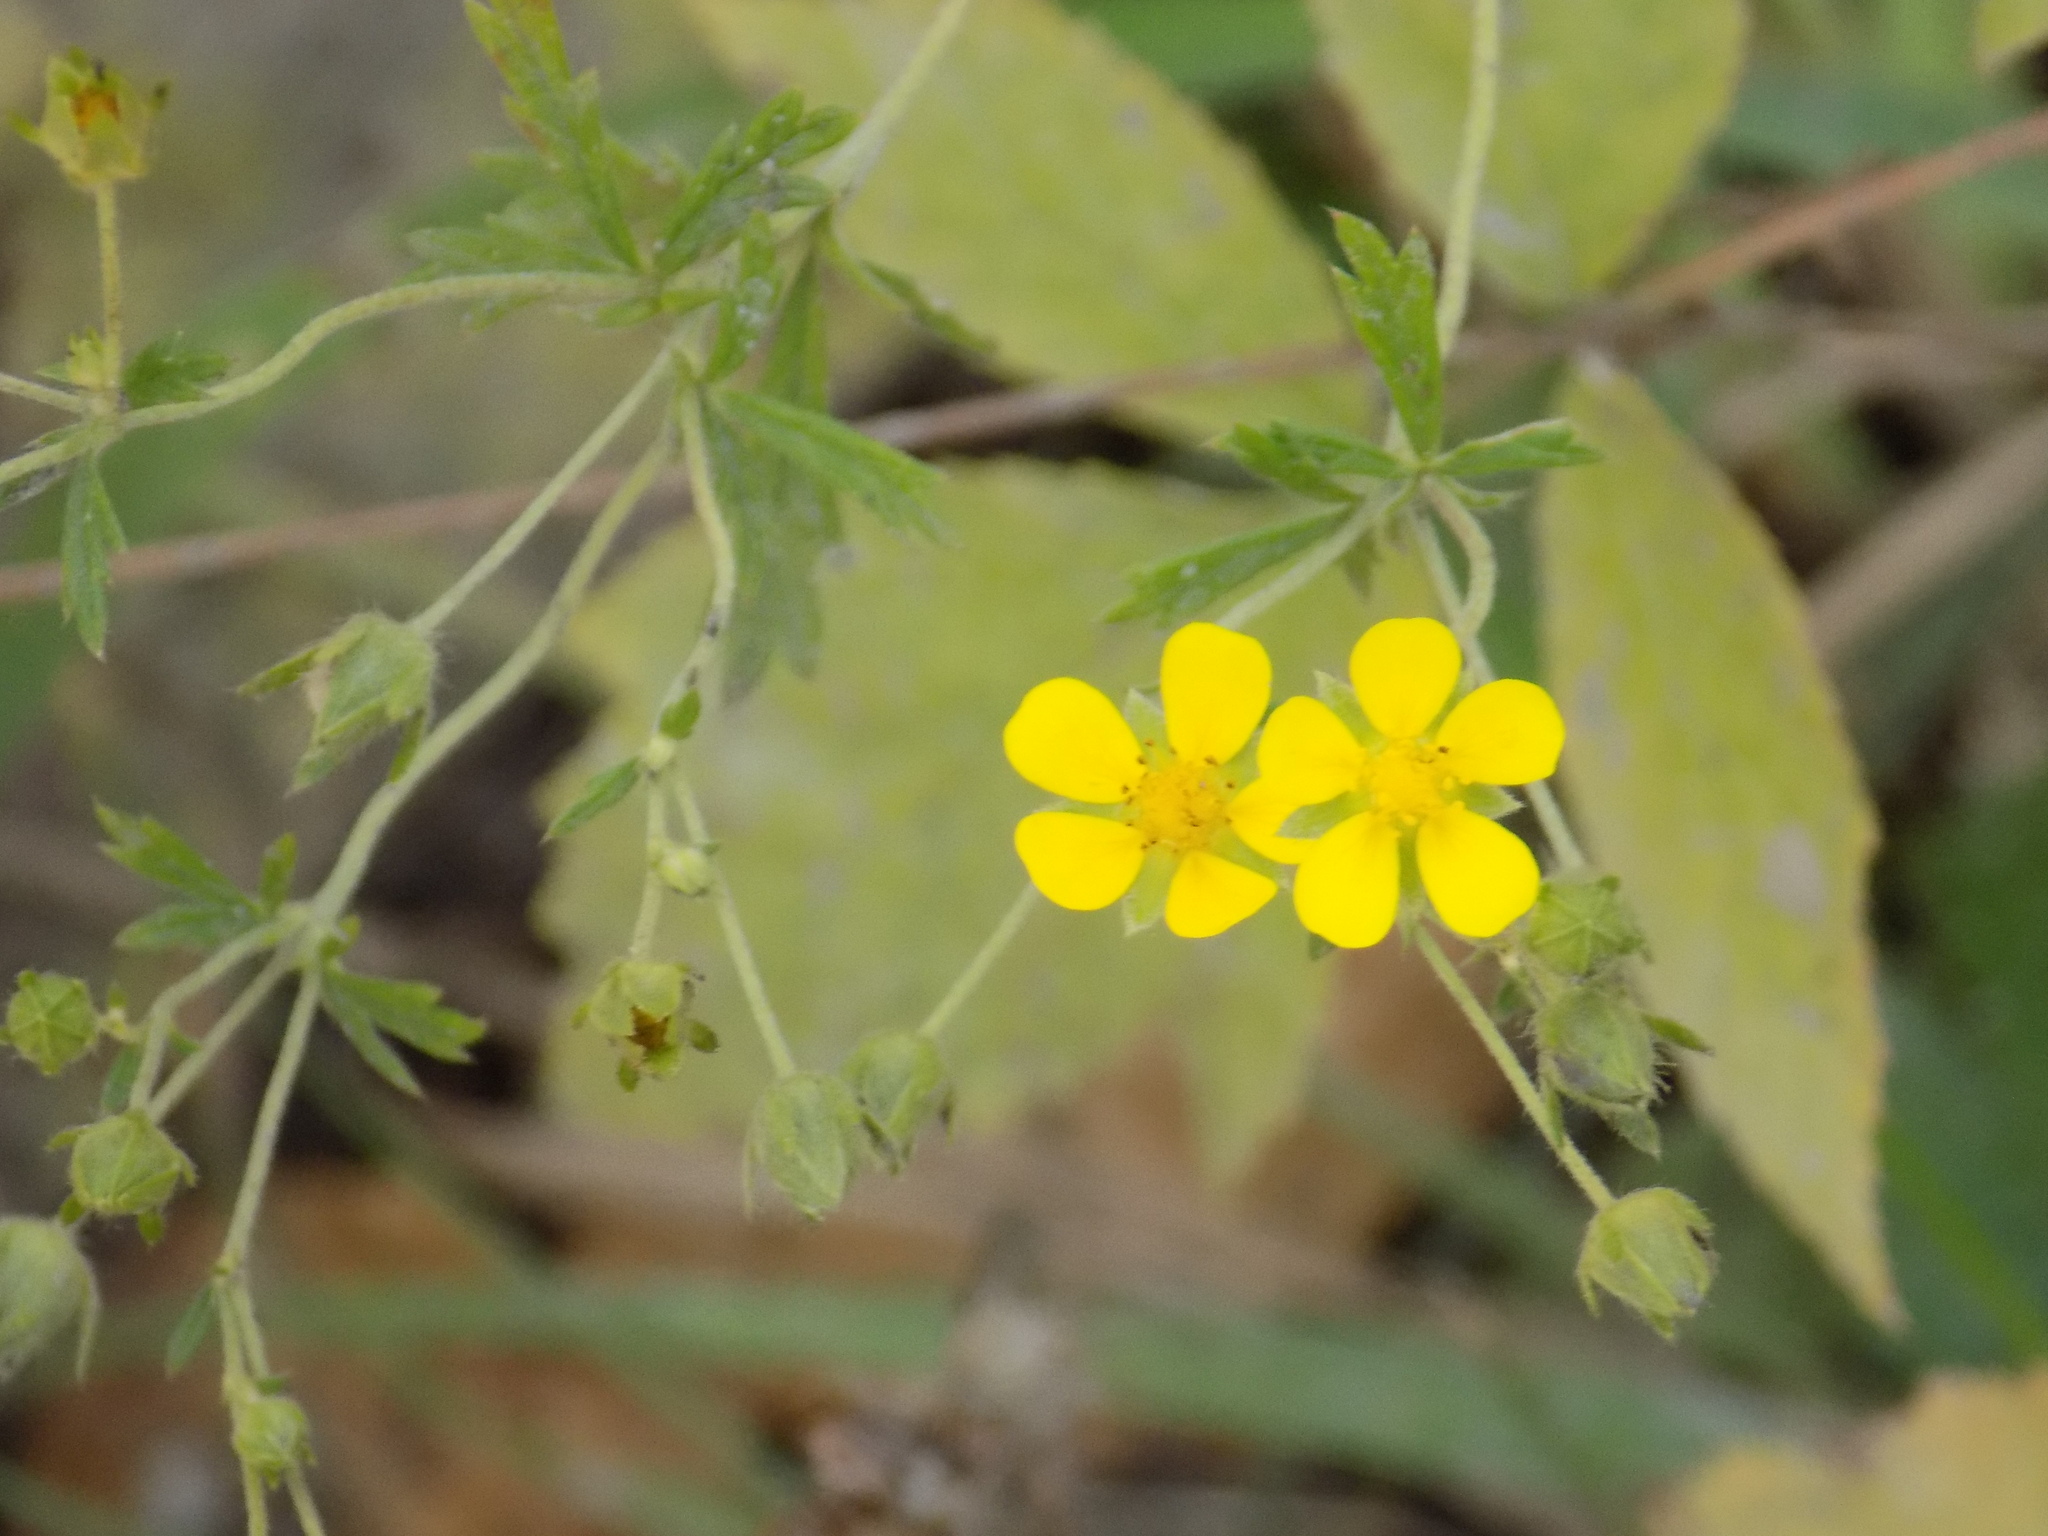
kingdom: Plantae
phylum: Tracheophyta
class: Magnoliopsida
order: Rosales
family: Rosaceae
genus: Potentilla
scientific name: Potentilla argentea
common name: Hoary cinquefoil
